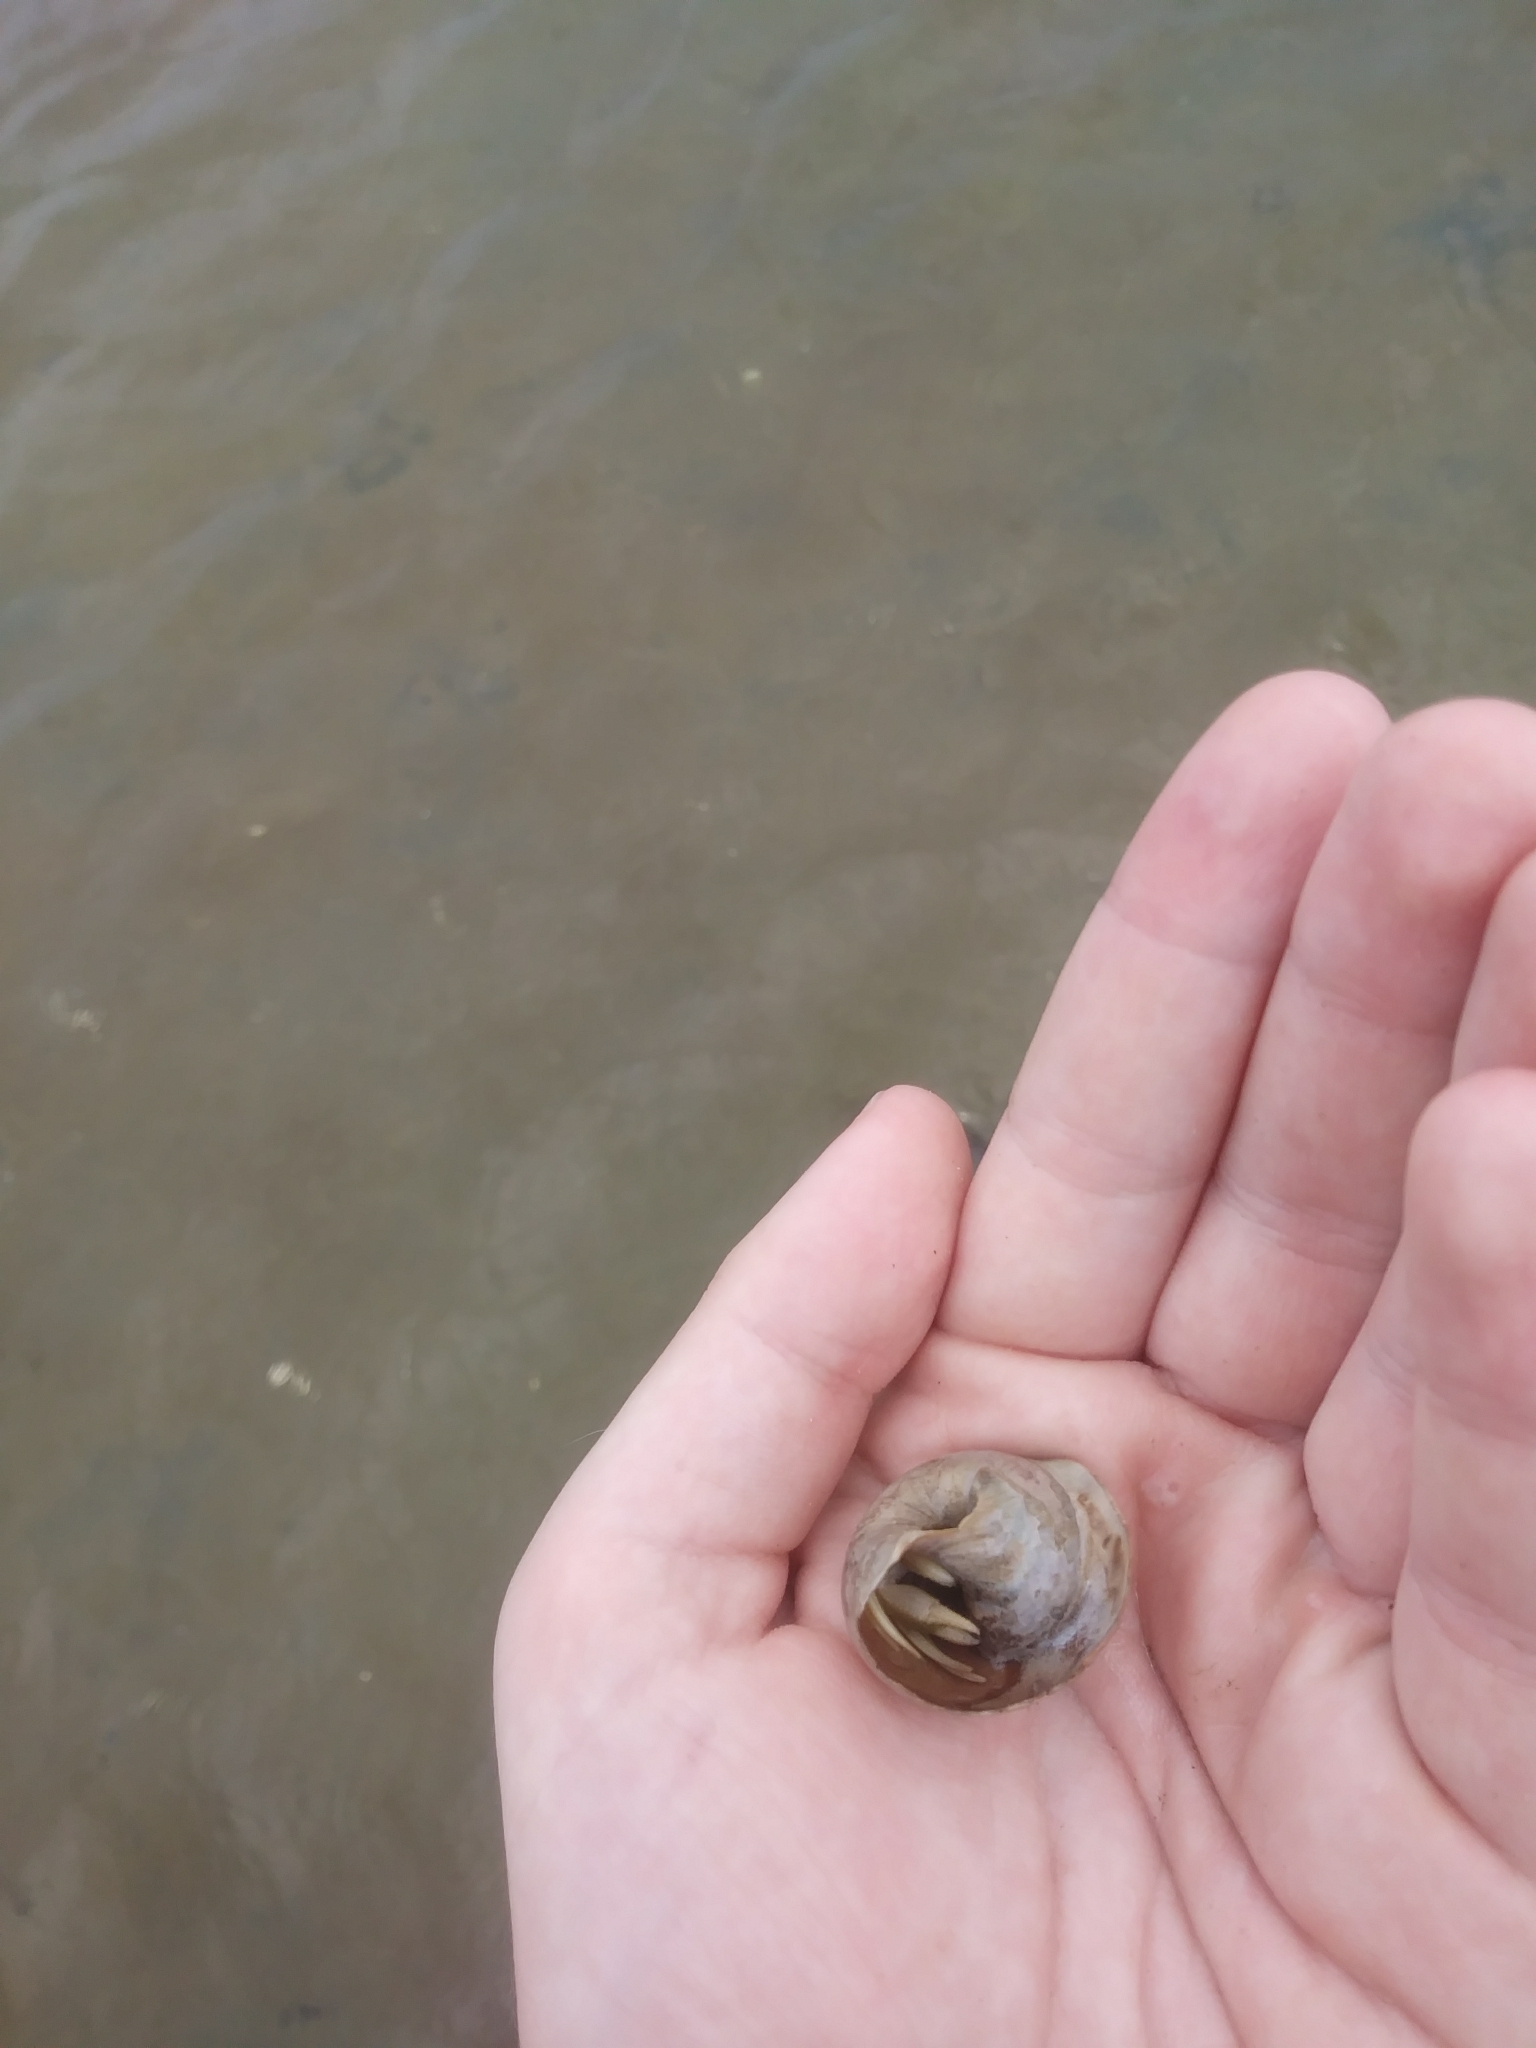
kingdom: Animalia
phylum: Arthropoda
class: Malacostraca
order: Decapoda
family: Paguridae
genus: Pagurus
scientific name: Pagurus longicarpus
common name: Long-armed hermit crab
